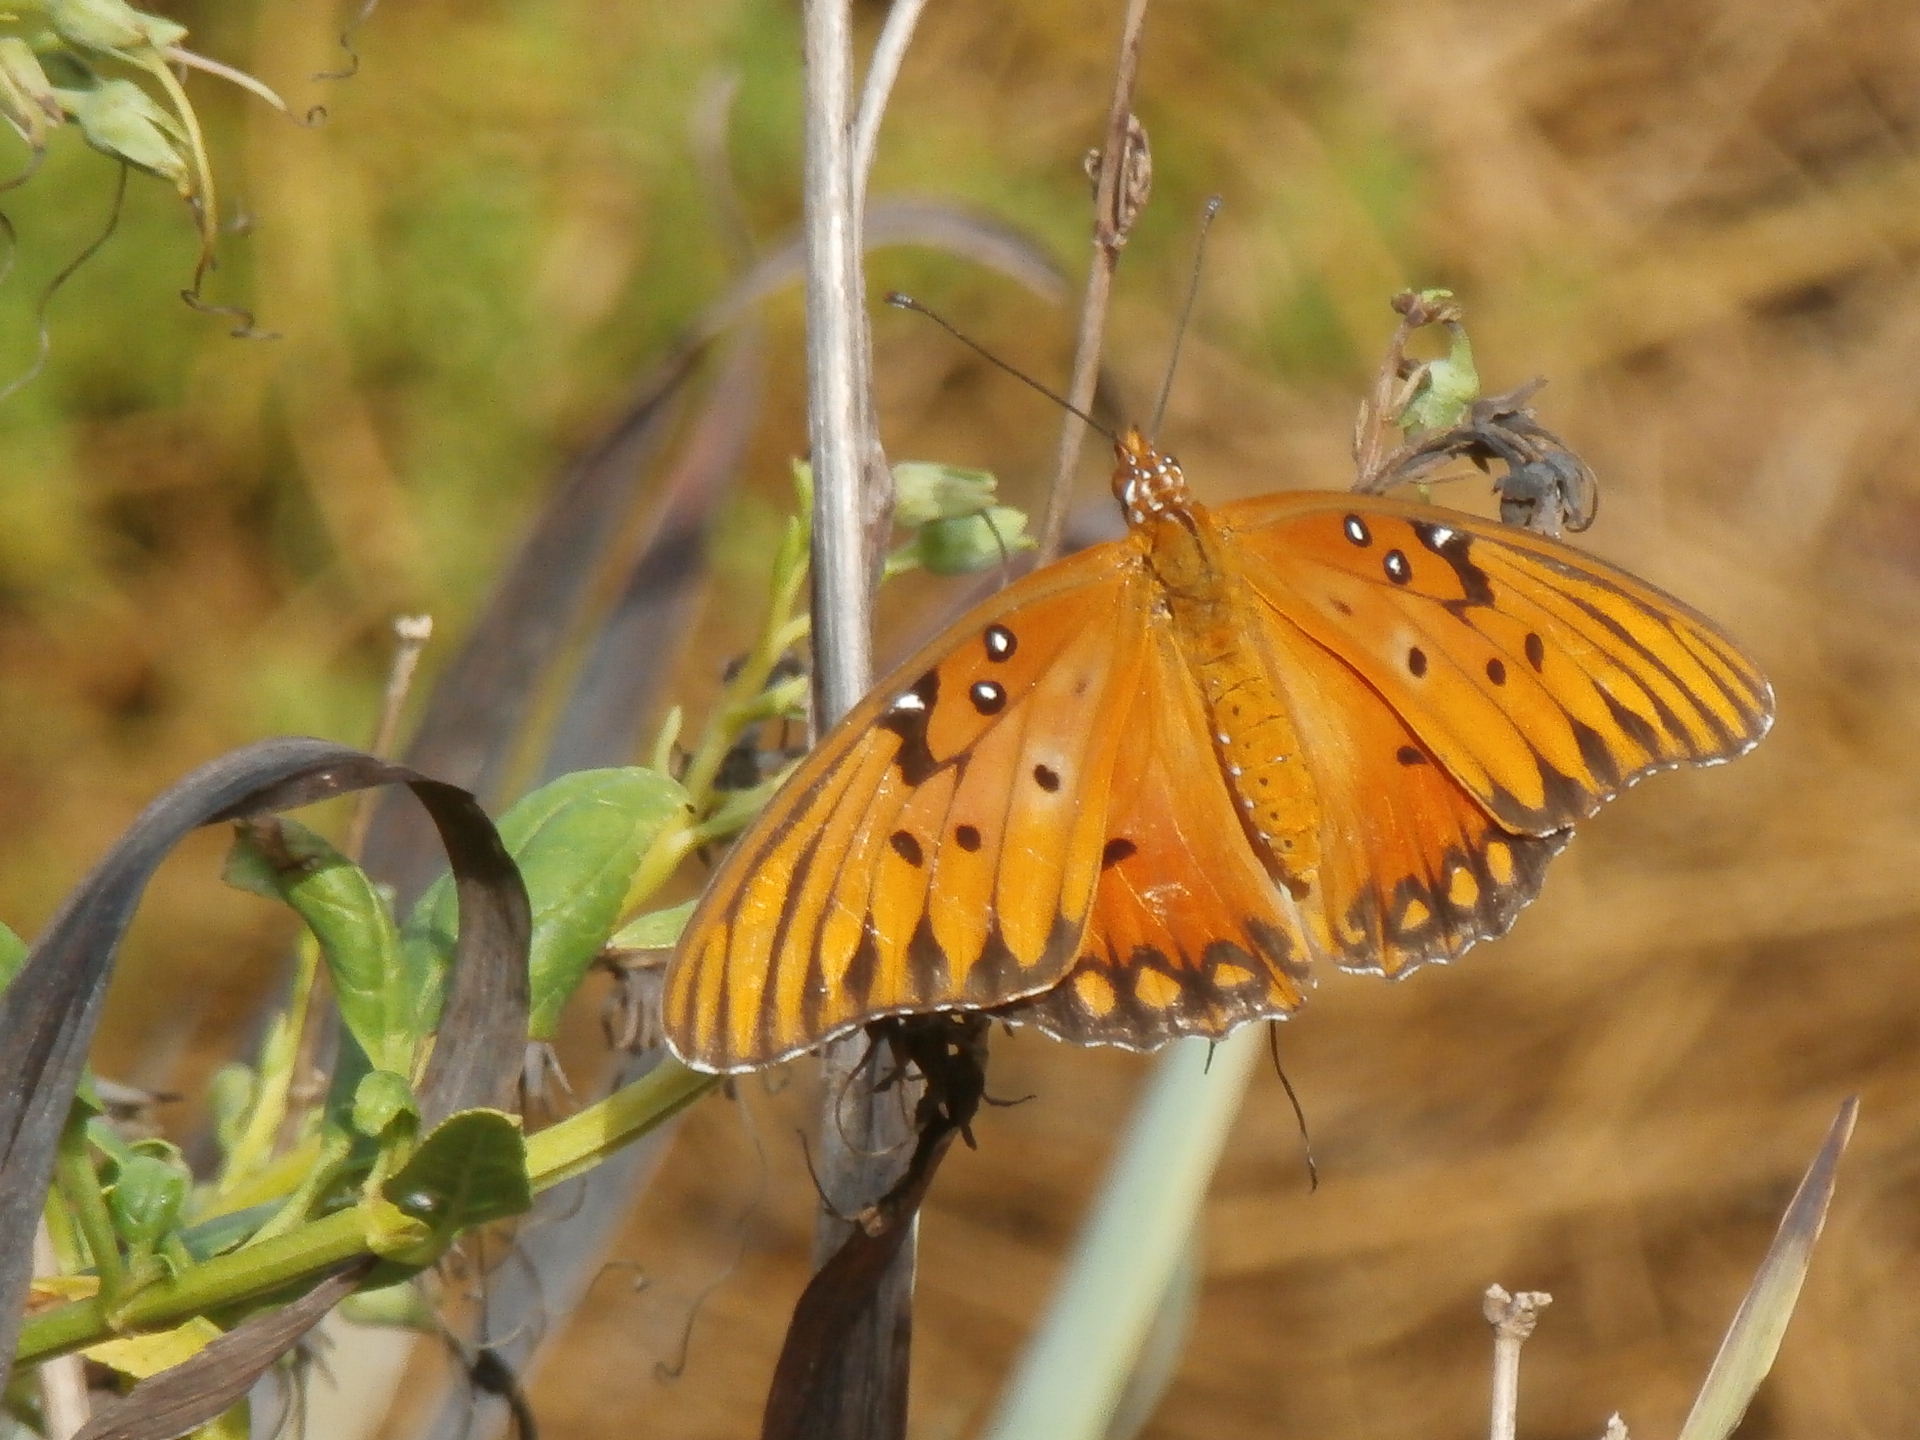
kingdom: Animalia
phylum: Arthropoda
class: Insecta
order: Lepidoptera
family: Nymphalidae
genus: Dione
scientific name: Dione vanillae
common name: Gulf fritillary
